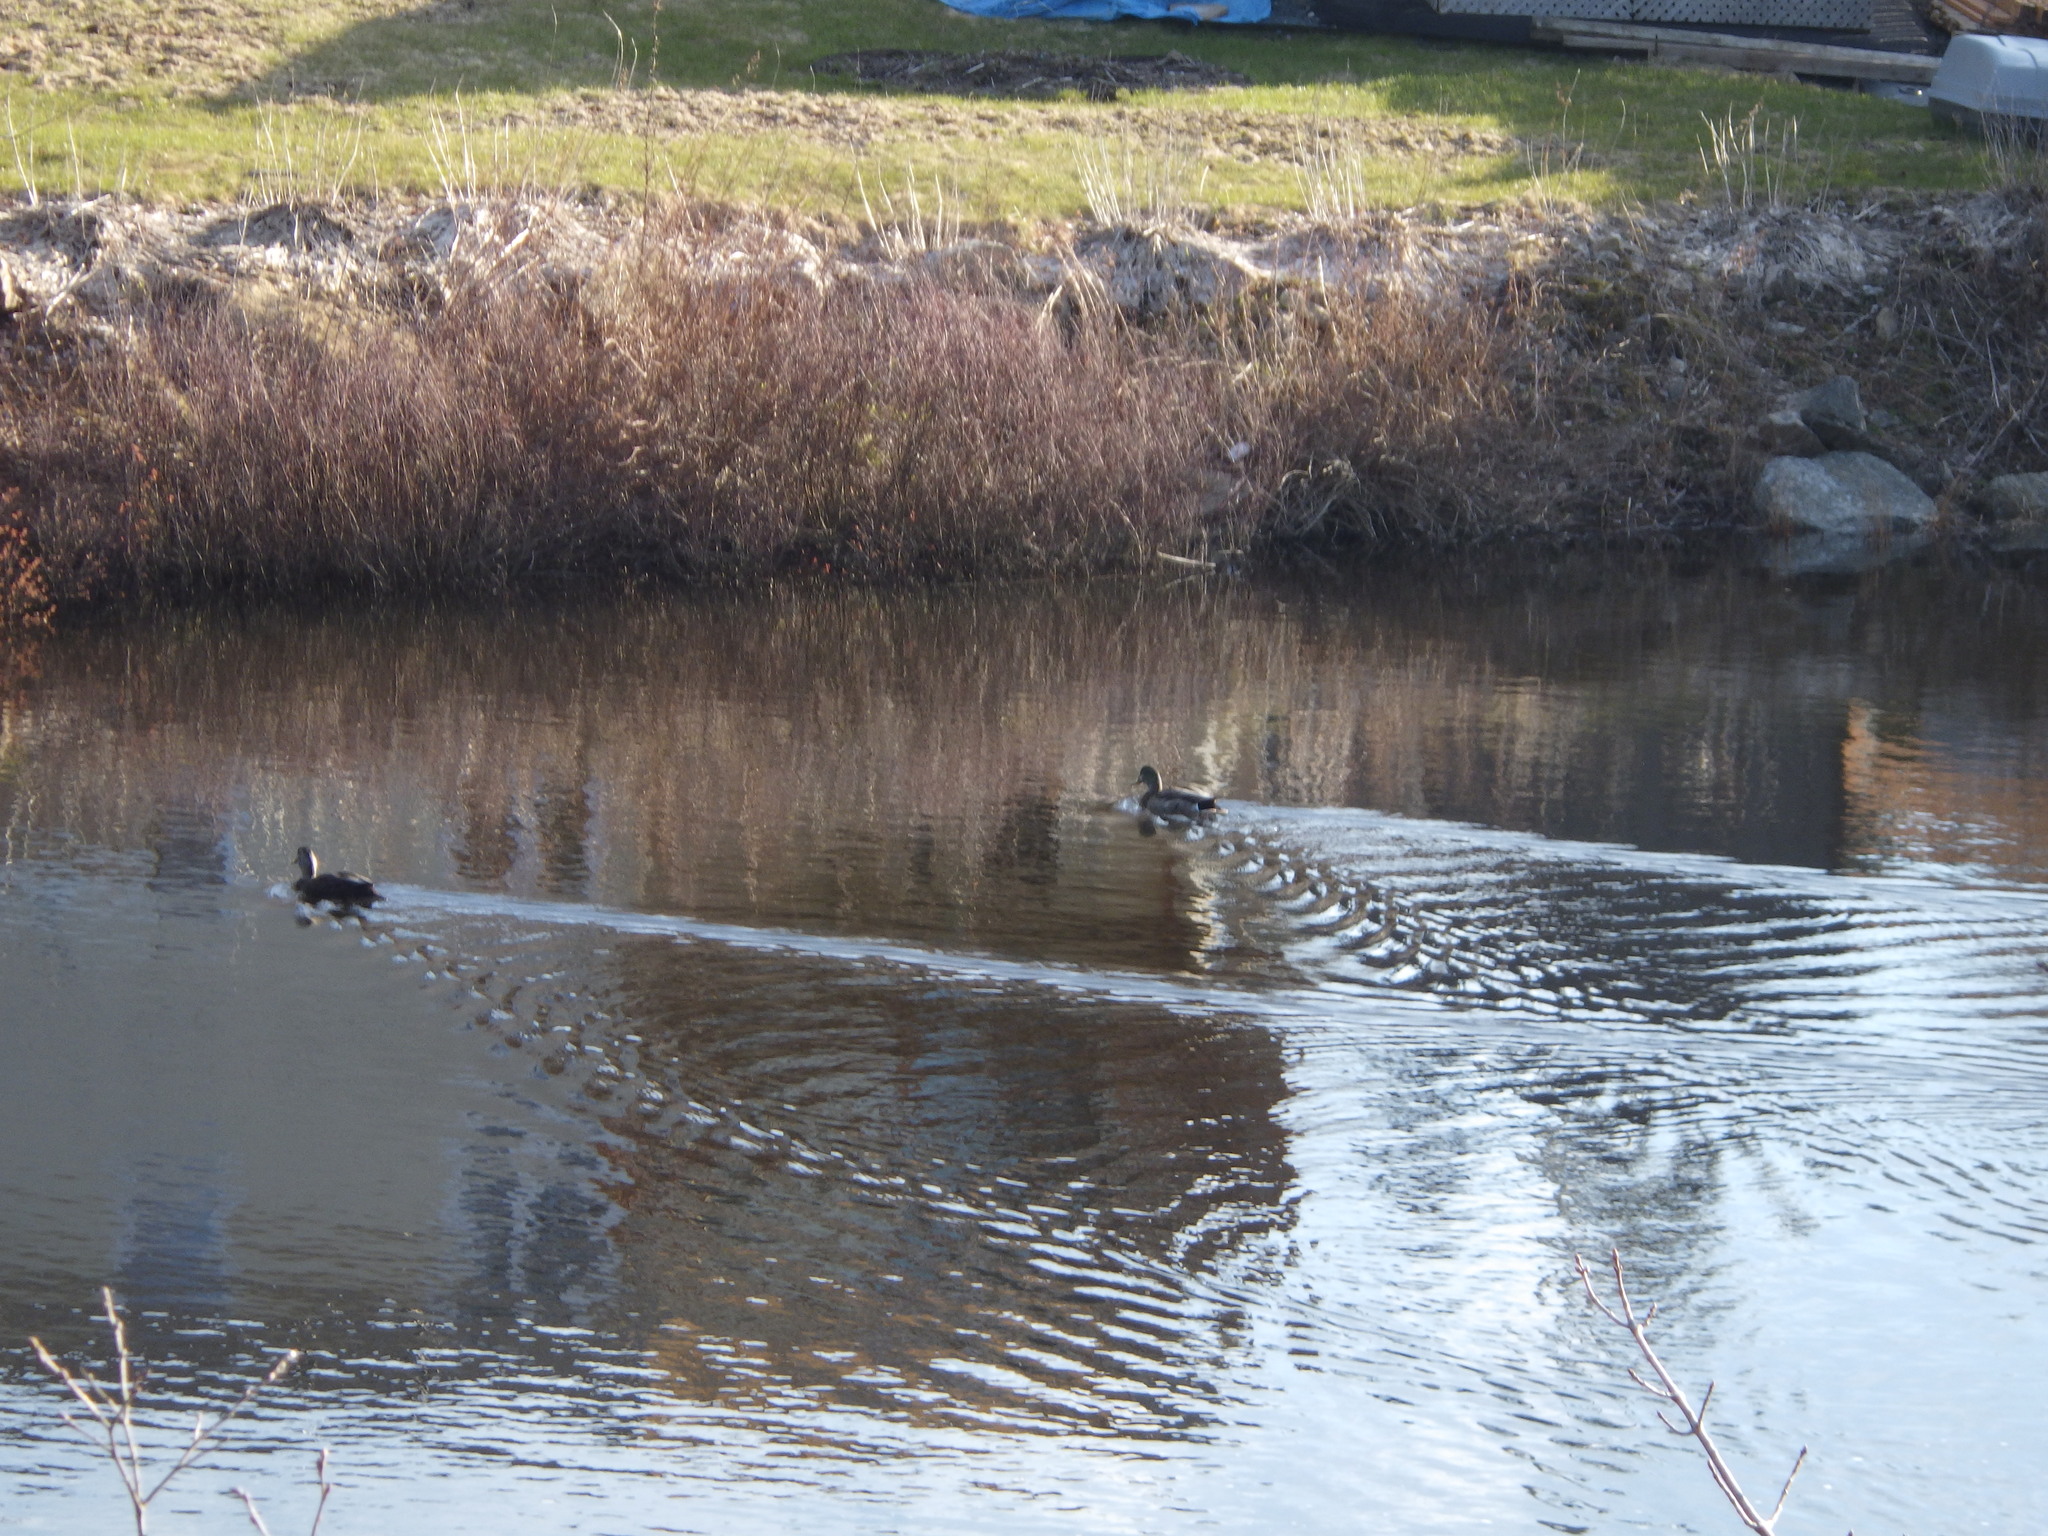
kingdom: Animalia
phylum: Chordata
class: Aves
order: Anseriformes
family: Anatidae
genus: Anas
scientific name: Anas platyrhynchos
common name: Mallard
